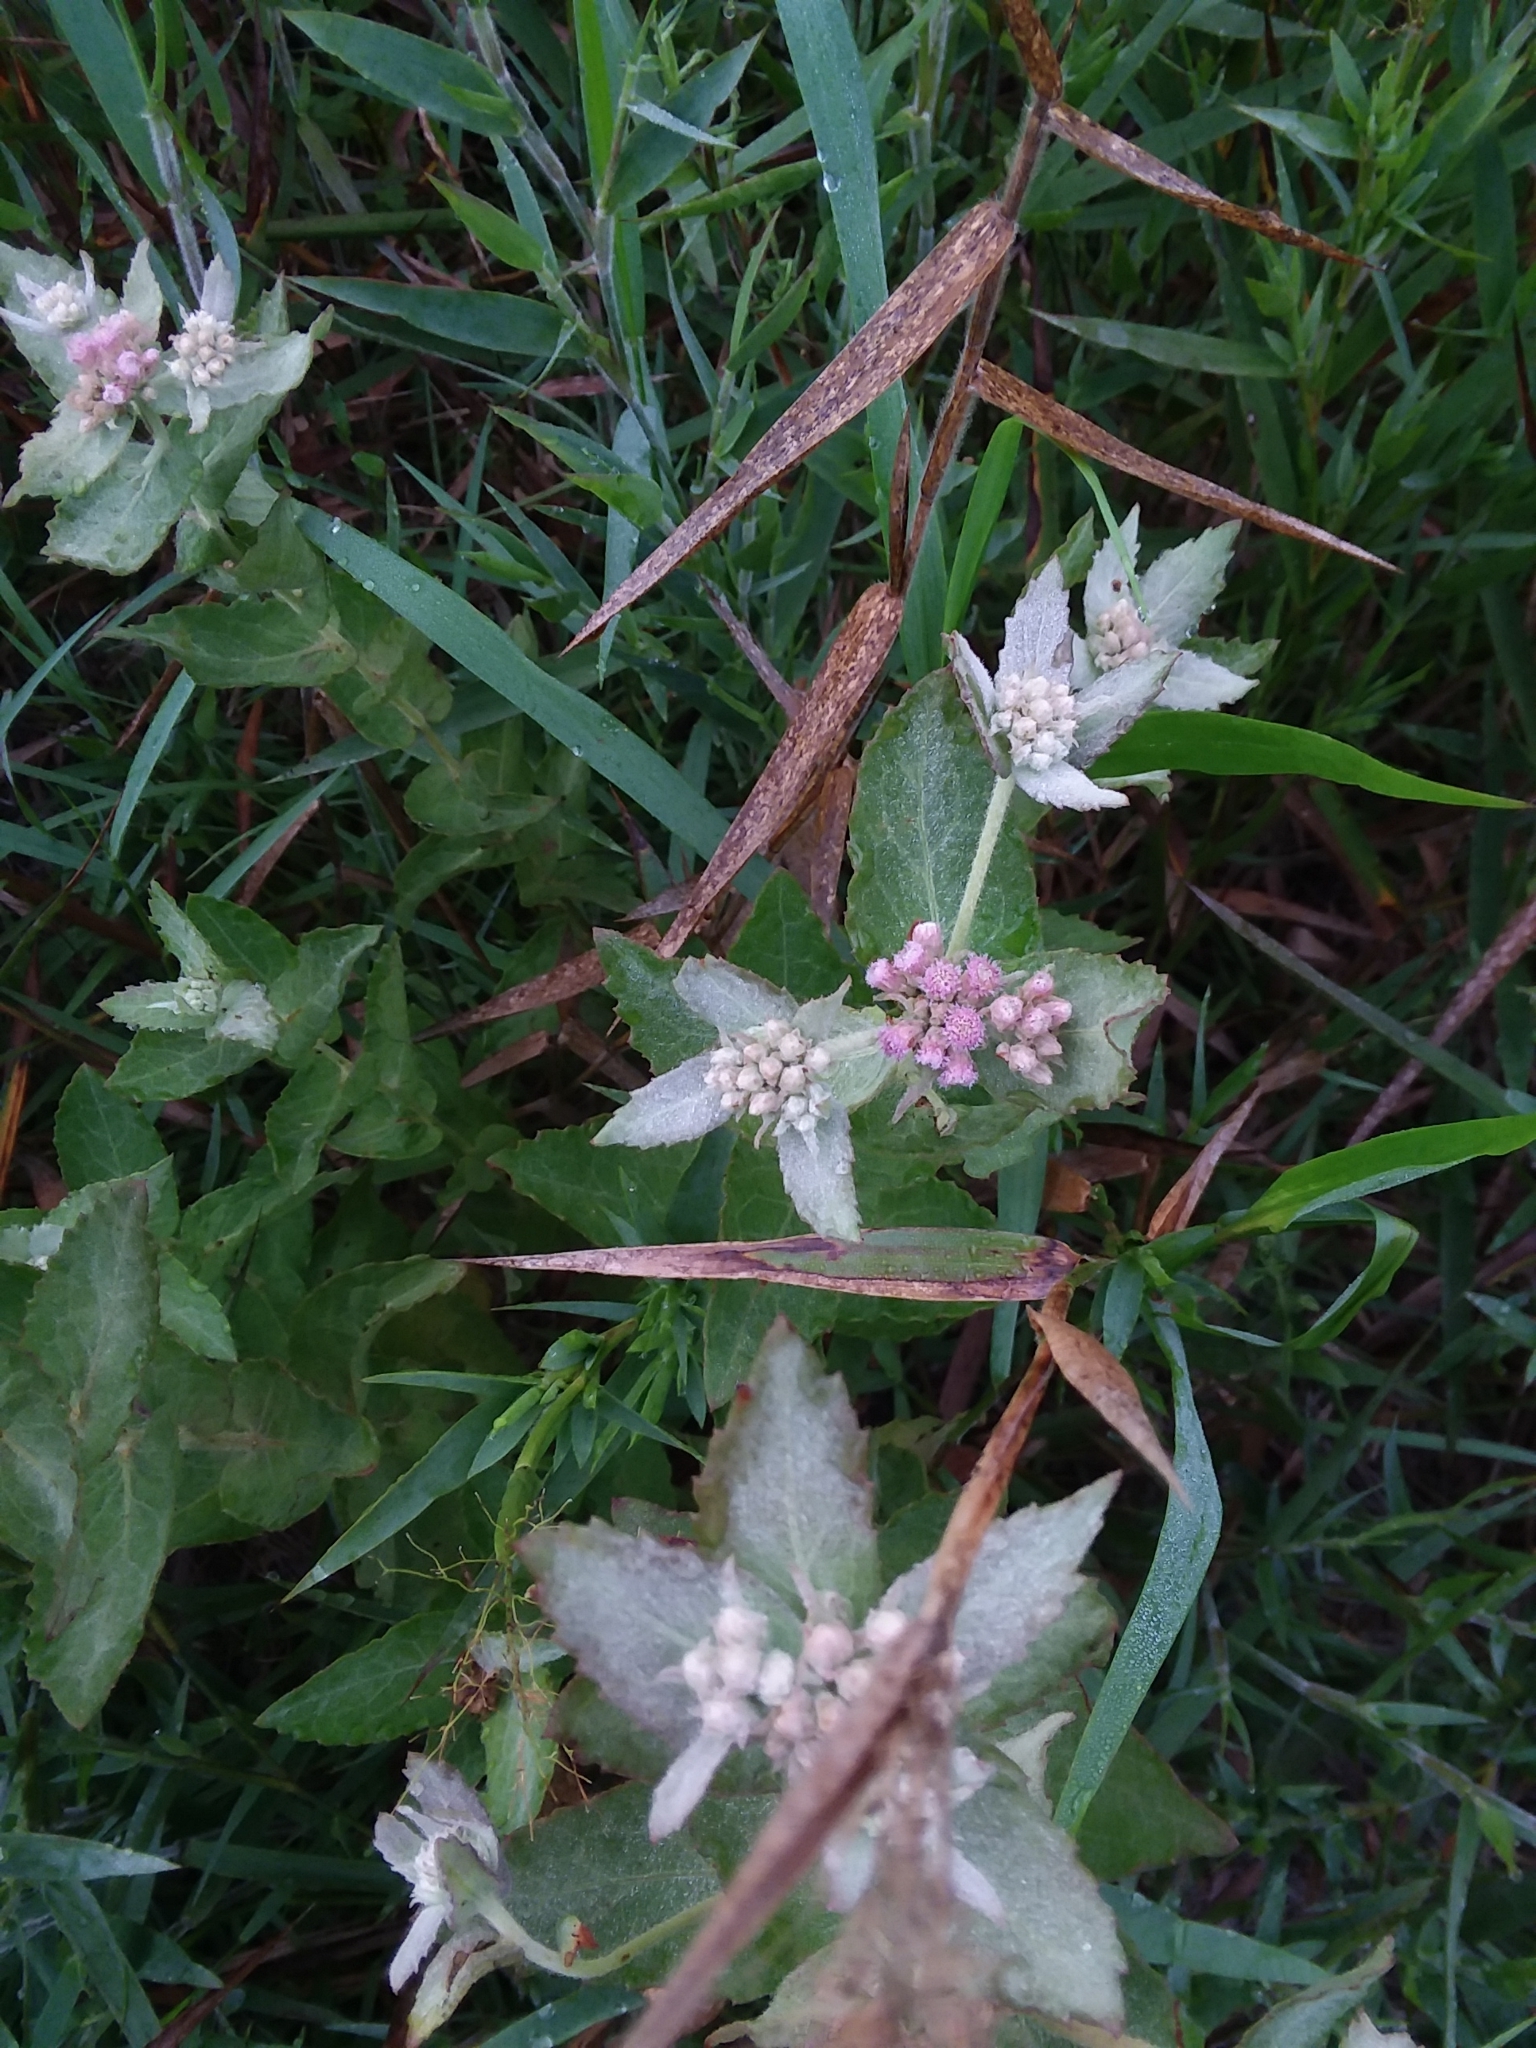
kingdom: Plantae
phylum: Tracheophyta
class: Magnoliopsida
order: Asterales
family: Asteraceae
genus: Pluchea
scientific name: Pluchea baccharis
